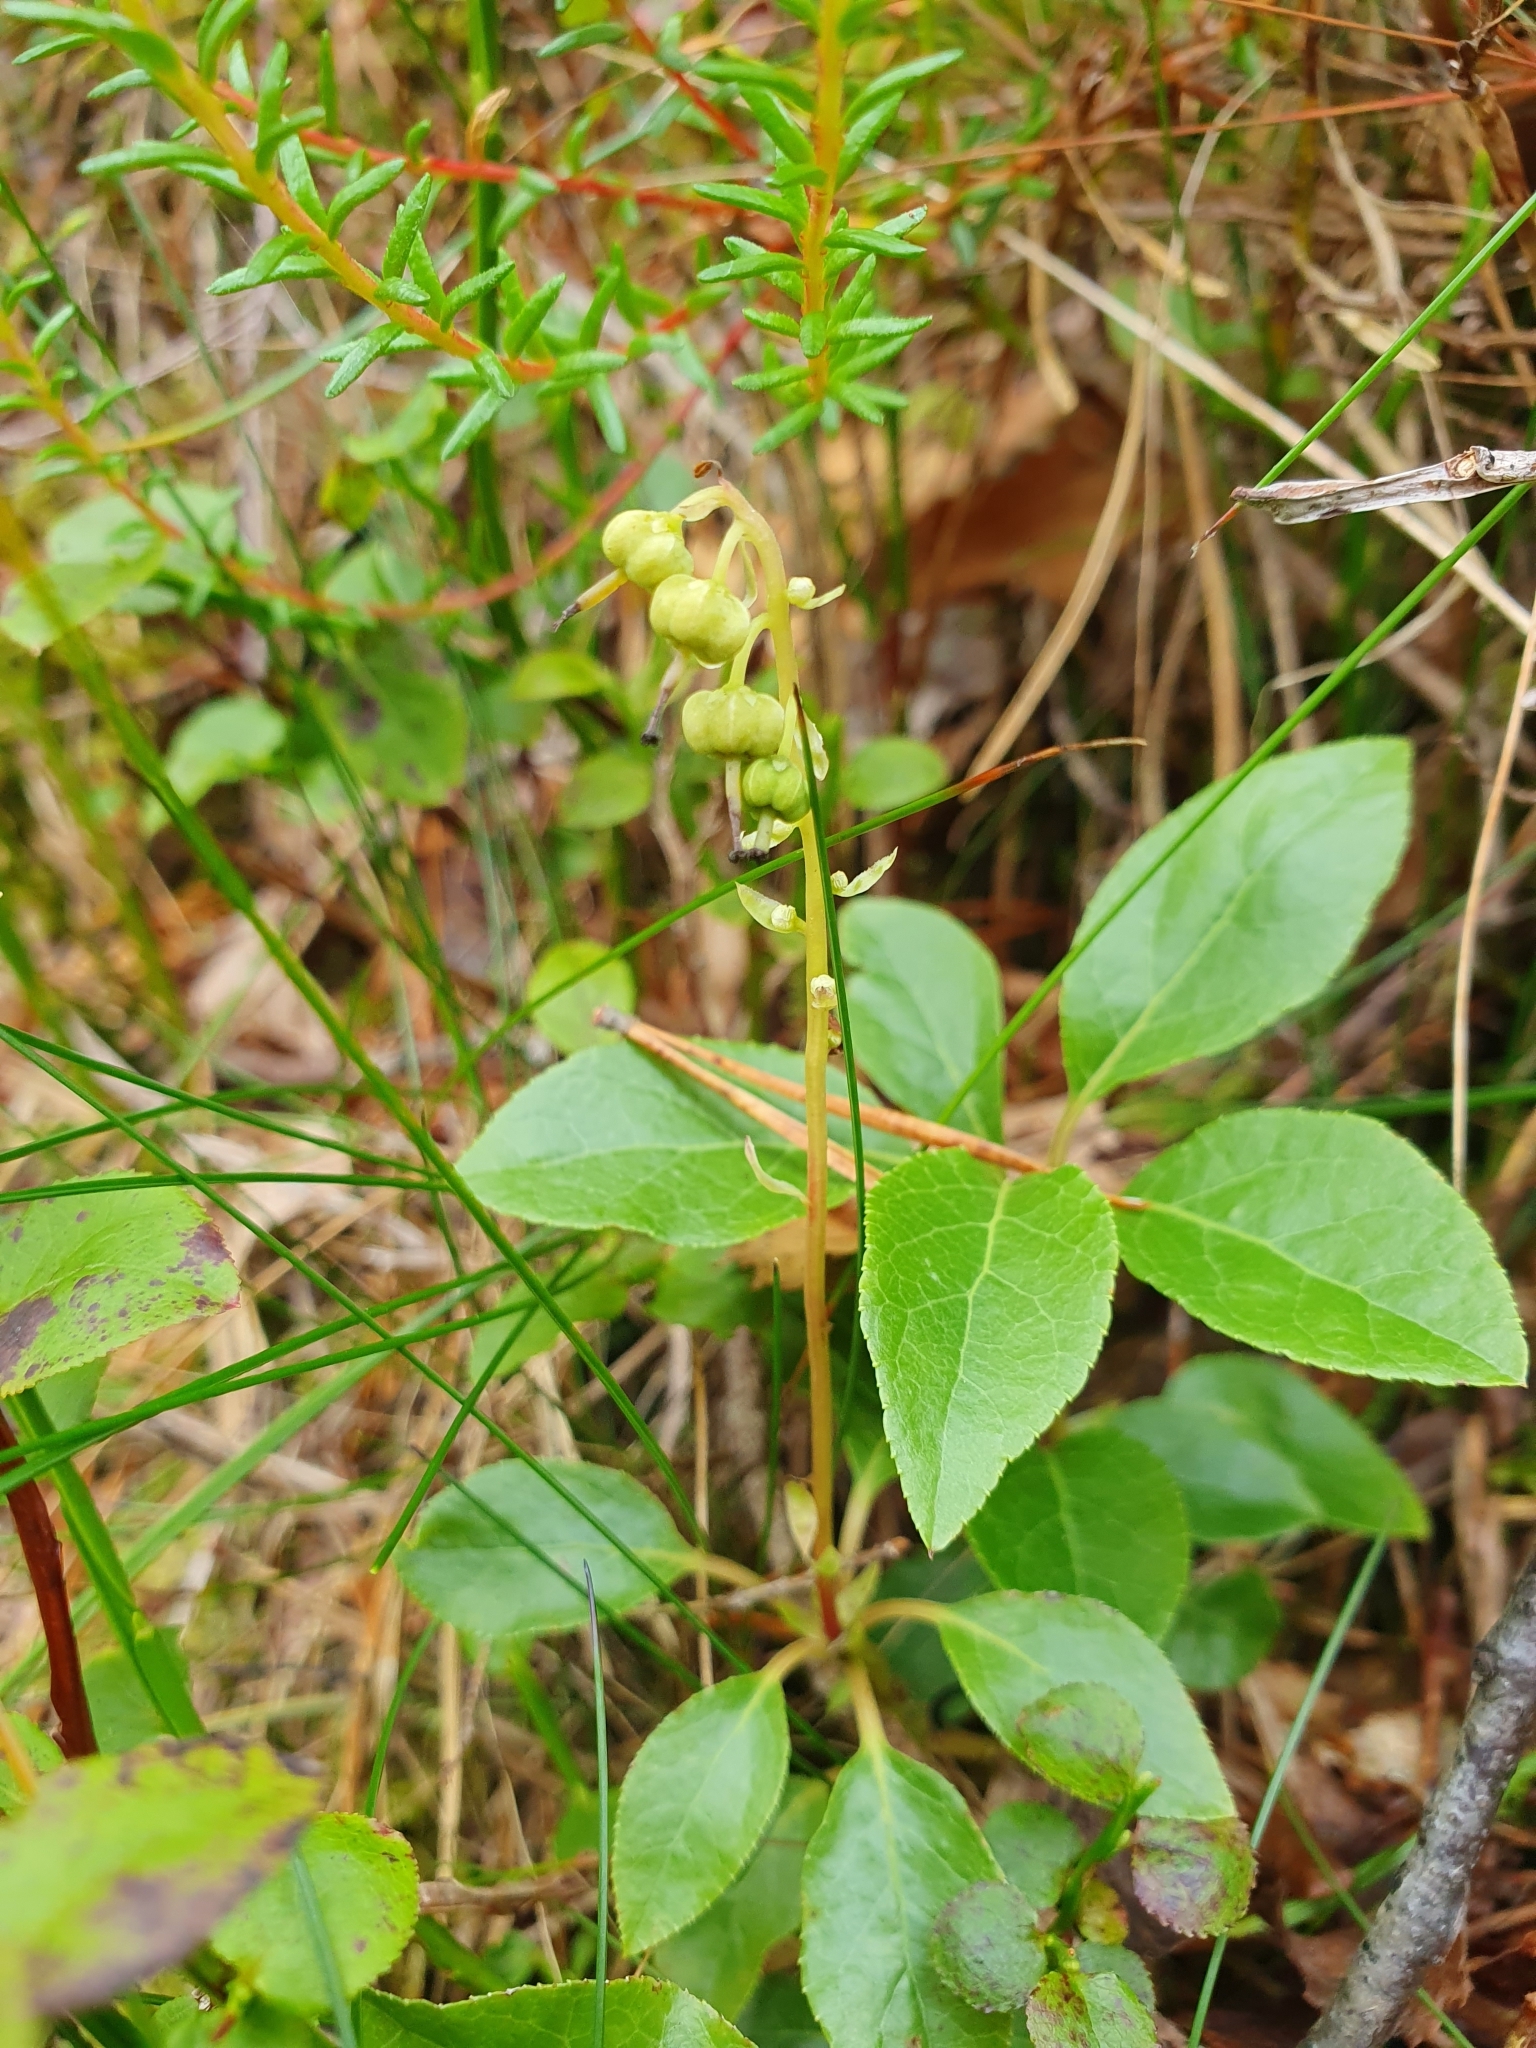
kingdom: Plantae
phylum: Tracheophyta
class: Magnoliopsida
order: Ericales
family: Ericaceae
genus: Orthilia
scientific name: Orthilia secunda
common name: One-sided orthilia
